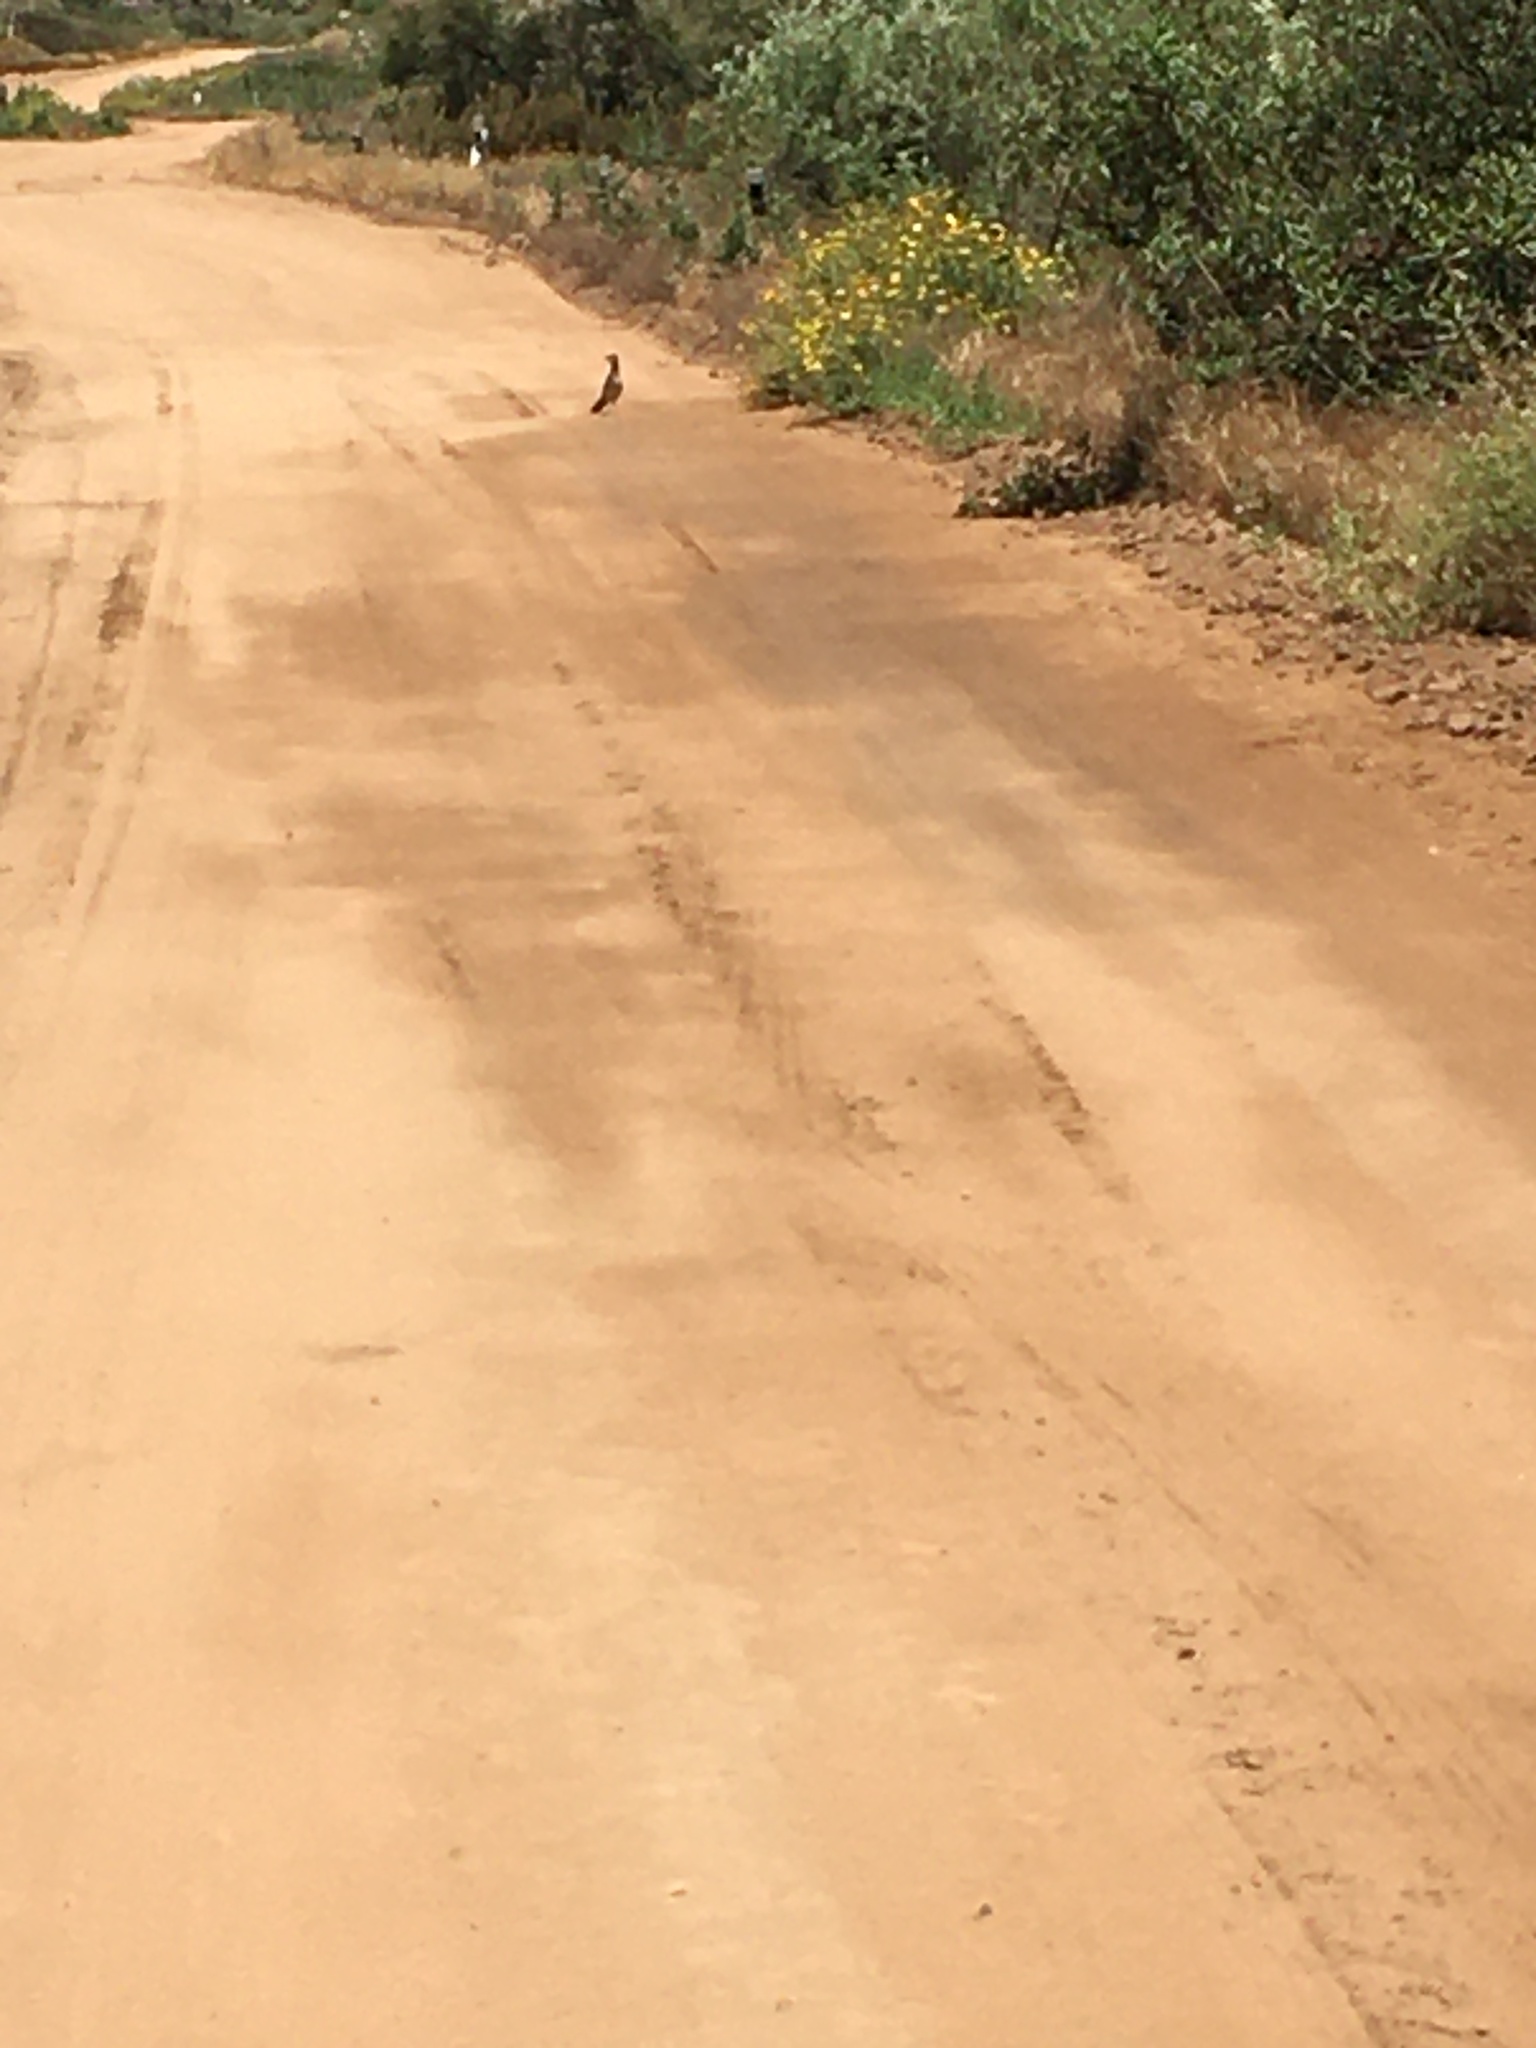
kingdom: Animalia
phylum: Chordata
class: Aves
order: Cuculiformes
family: Cuculidae
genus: Geococcyx
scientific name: Geococcyx californianus
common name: Greater roadrunner
